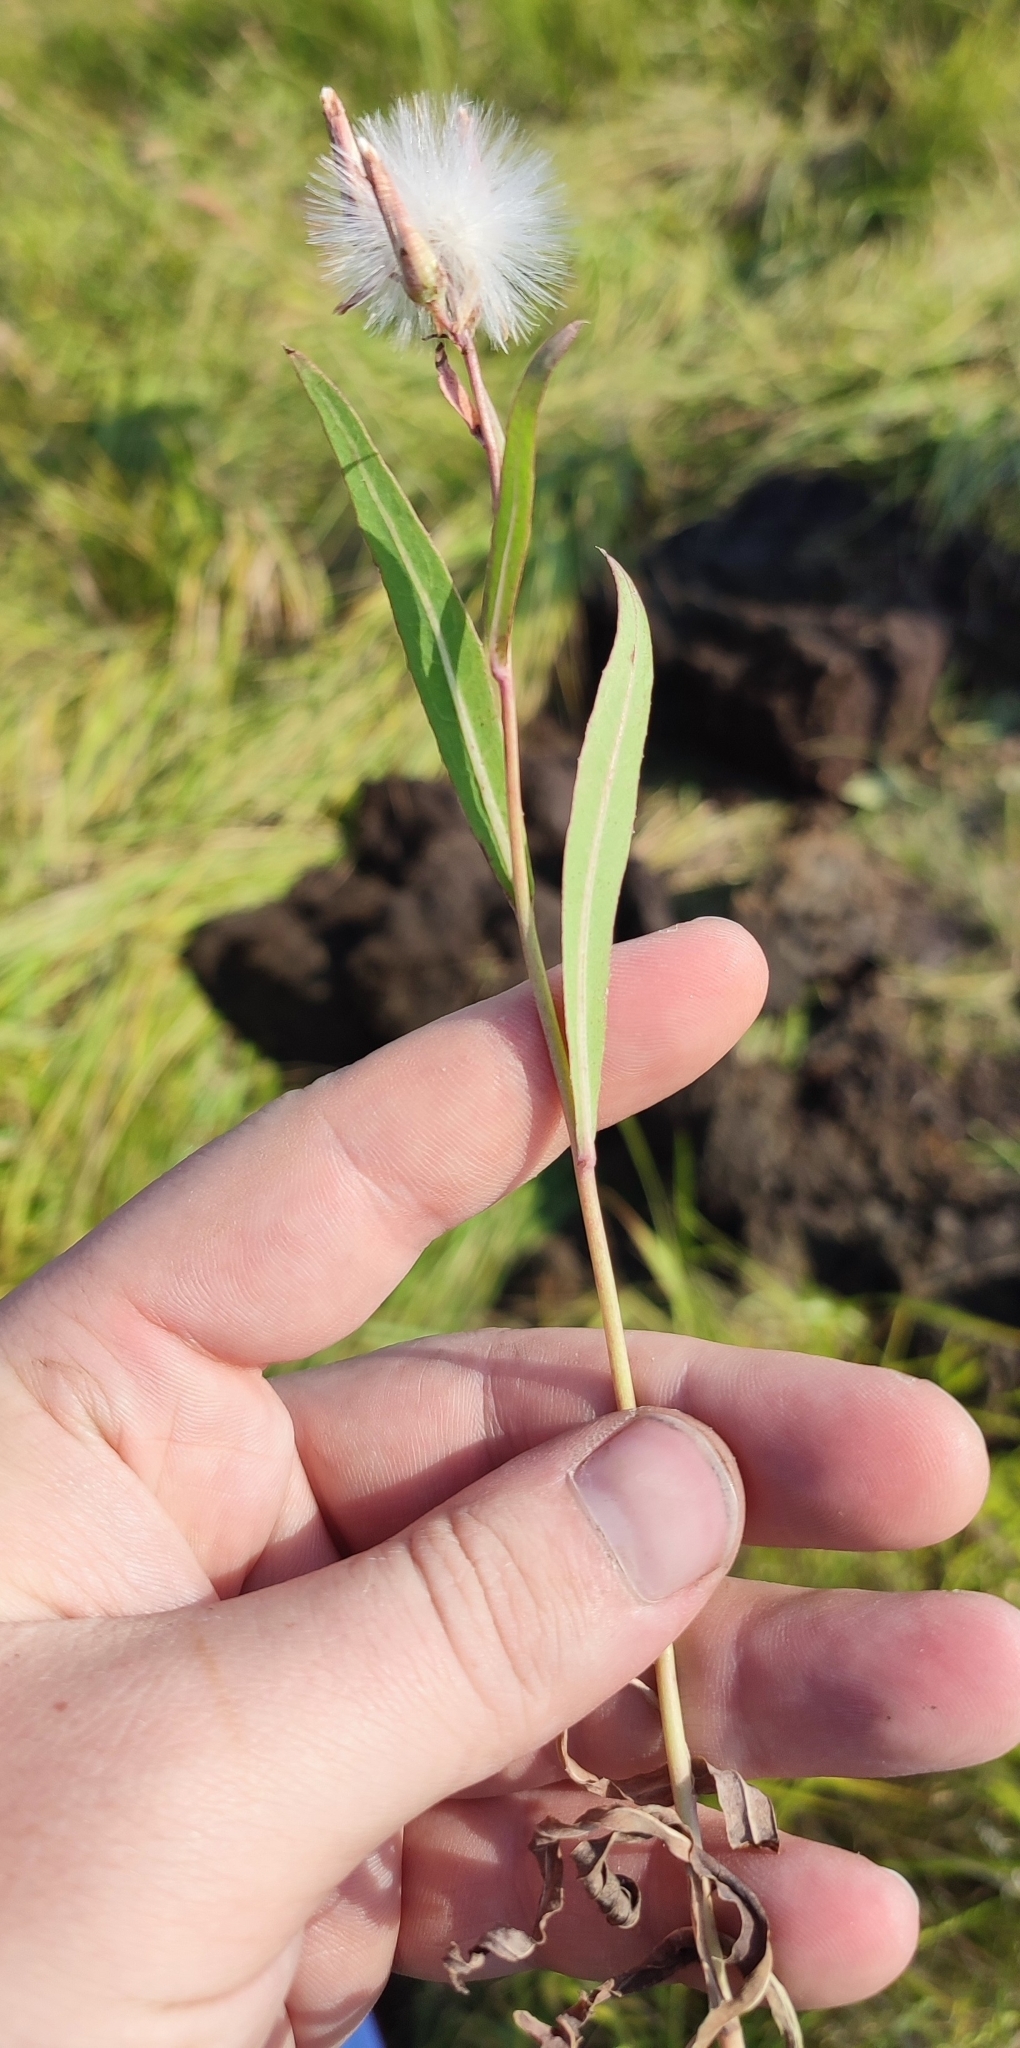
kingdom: Plantae
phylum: Tracheophyta
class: Magnoliopsida
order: Asterales
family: Asteraceae
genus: Lactuca
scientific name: Lactuca tatarica
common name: Blue lettuce
